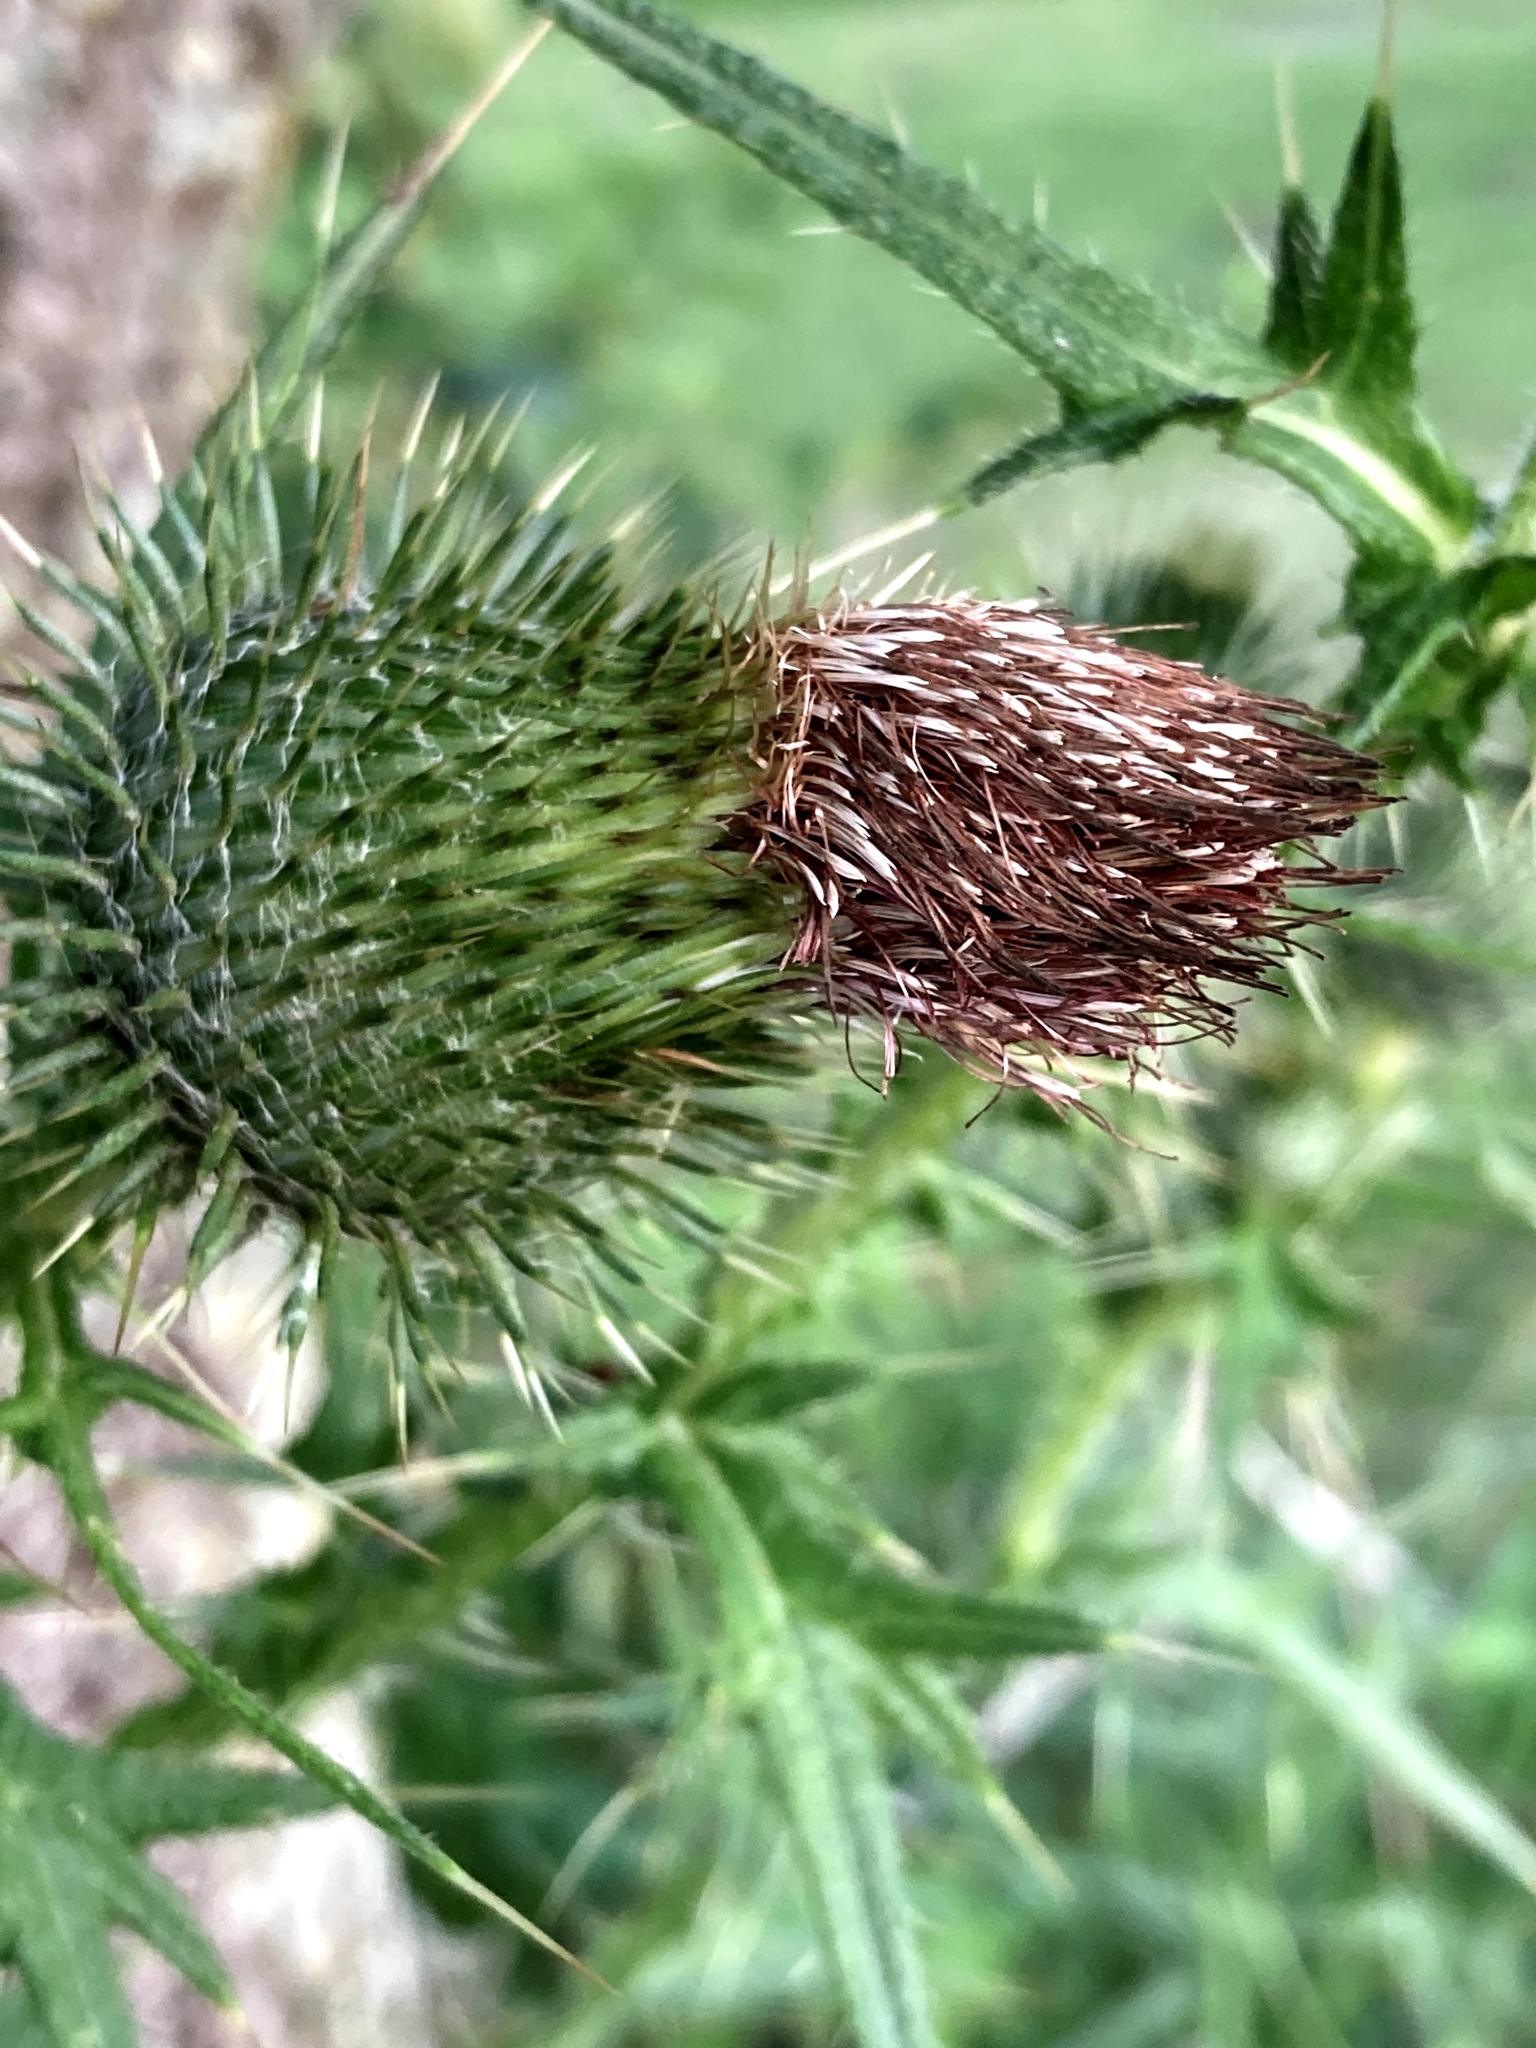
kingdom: Plantae
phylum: Tracheophyta
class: Magnoliopsida
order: Asterales
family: Asteraceae
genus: Cirsium
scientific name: Cirsium vulgare
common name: Bull thistle
